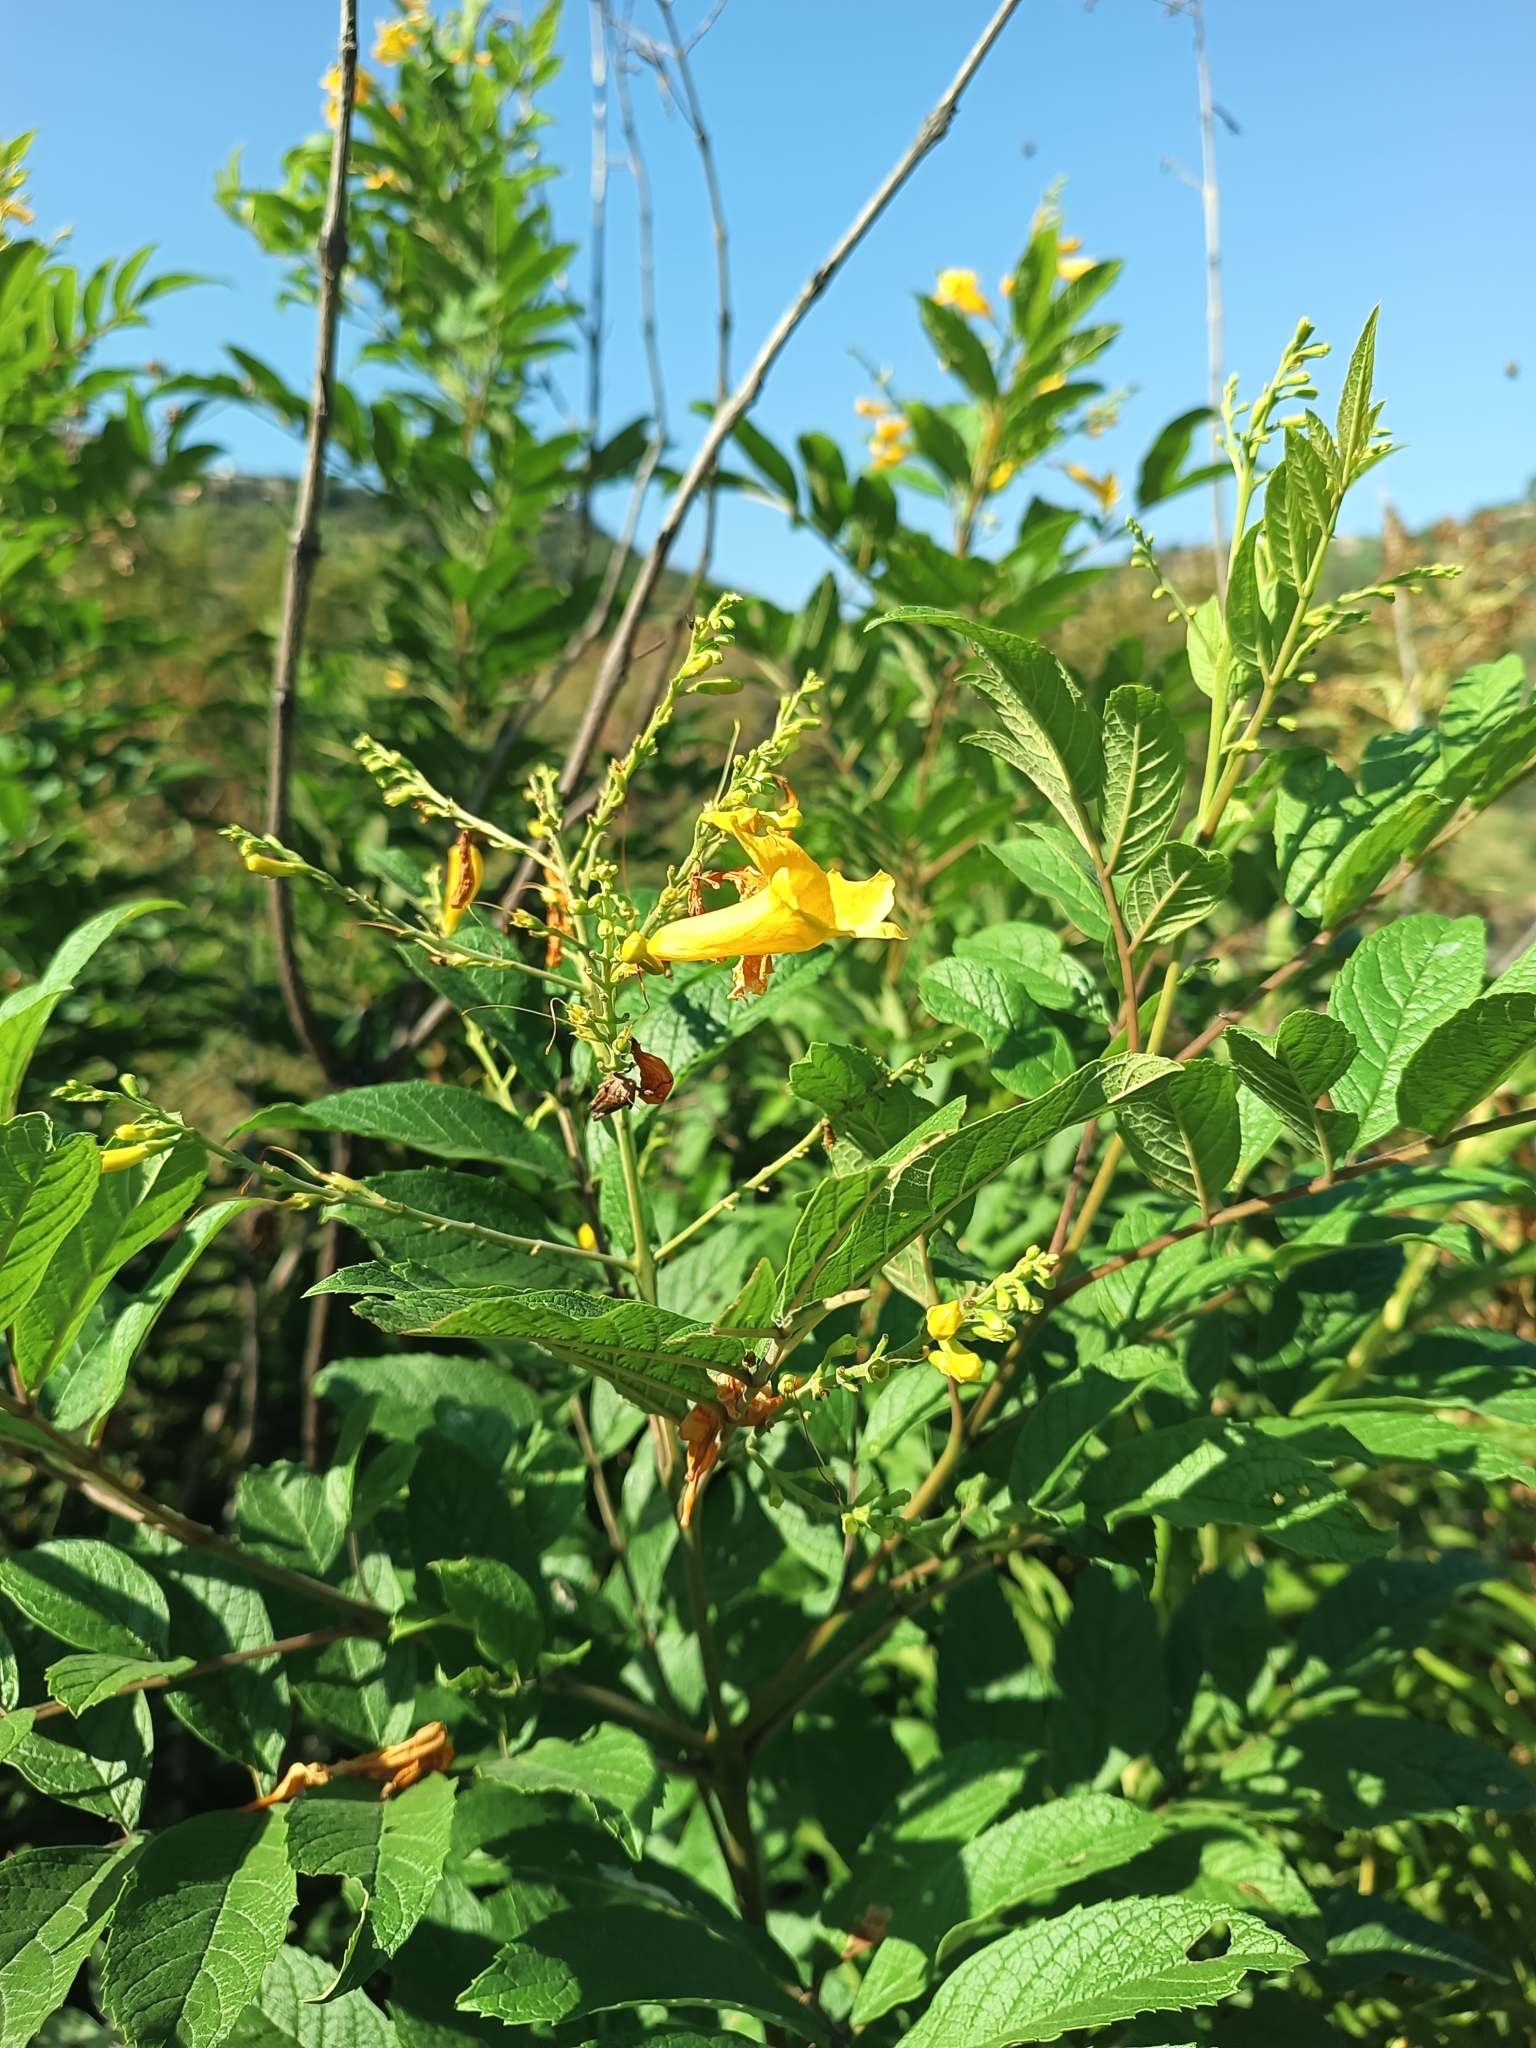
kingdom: Plantae
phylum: Tracheophyta
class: Magnoliopsida
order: Lamiales
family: Bignoniaceae
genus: Tecoma
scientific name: Tecoma stans
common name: Yellow trumpetbush
